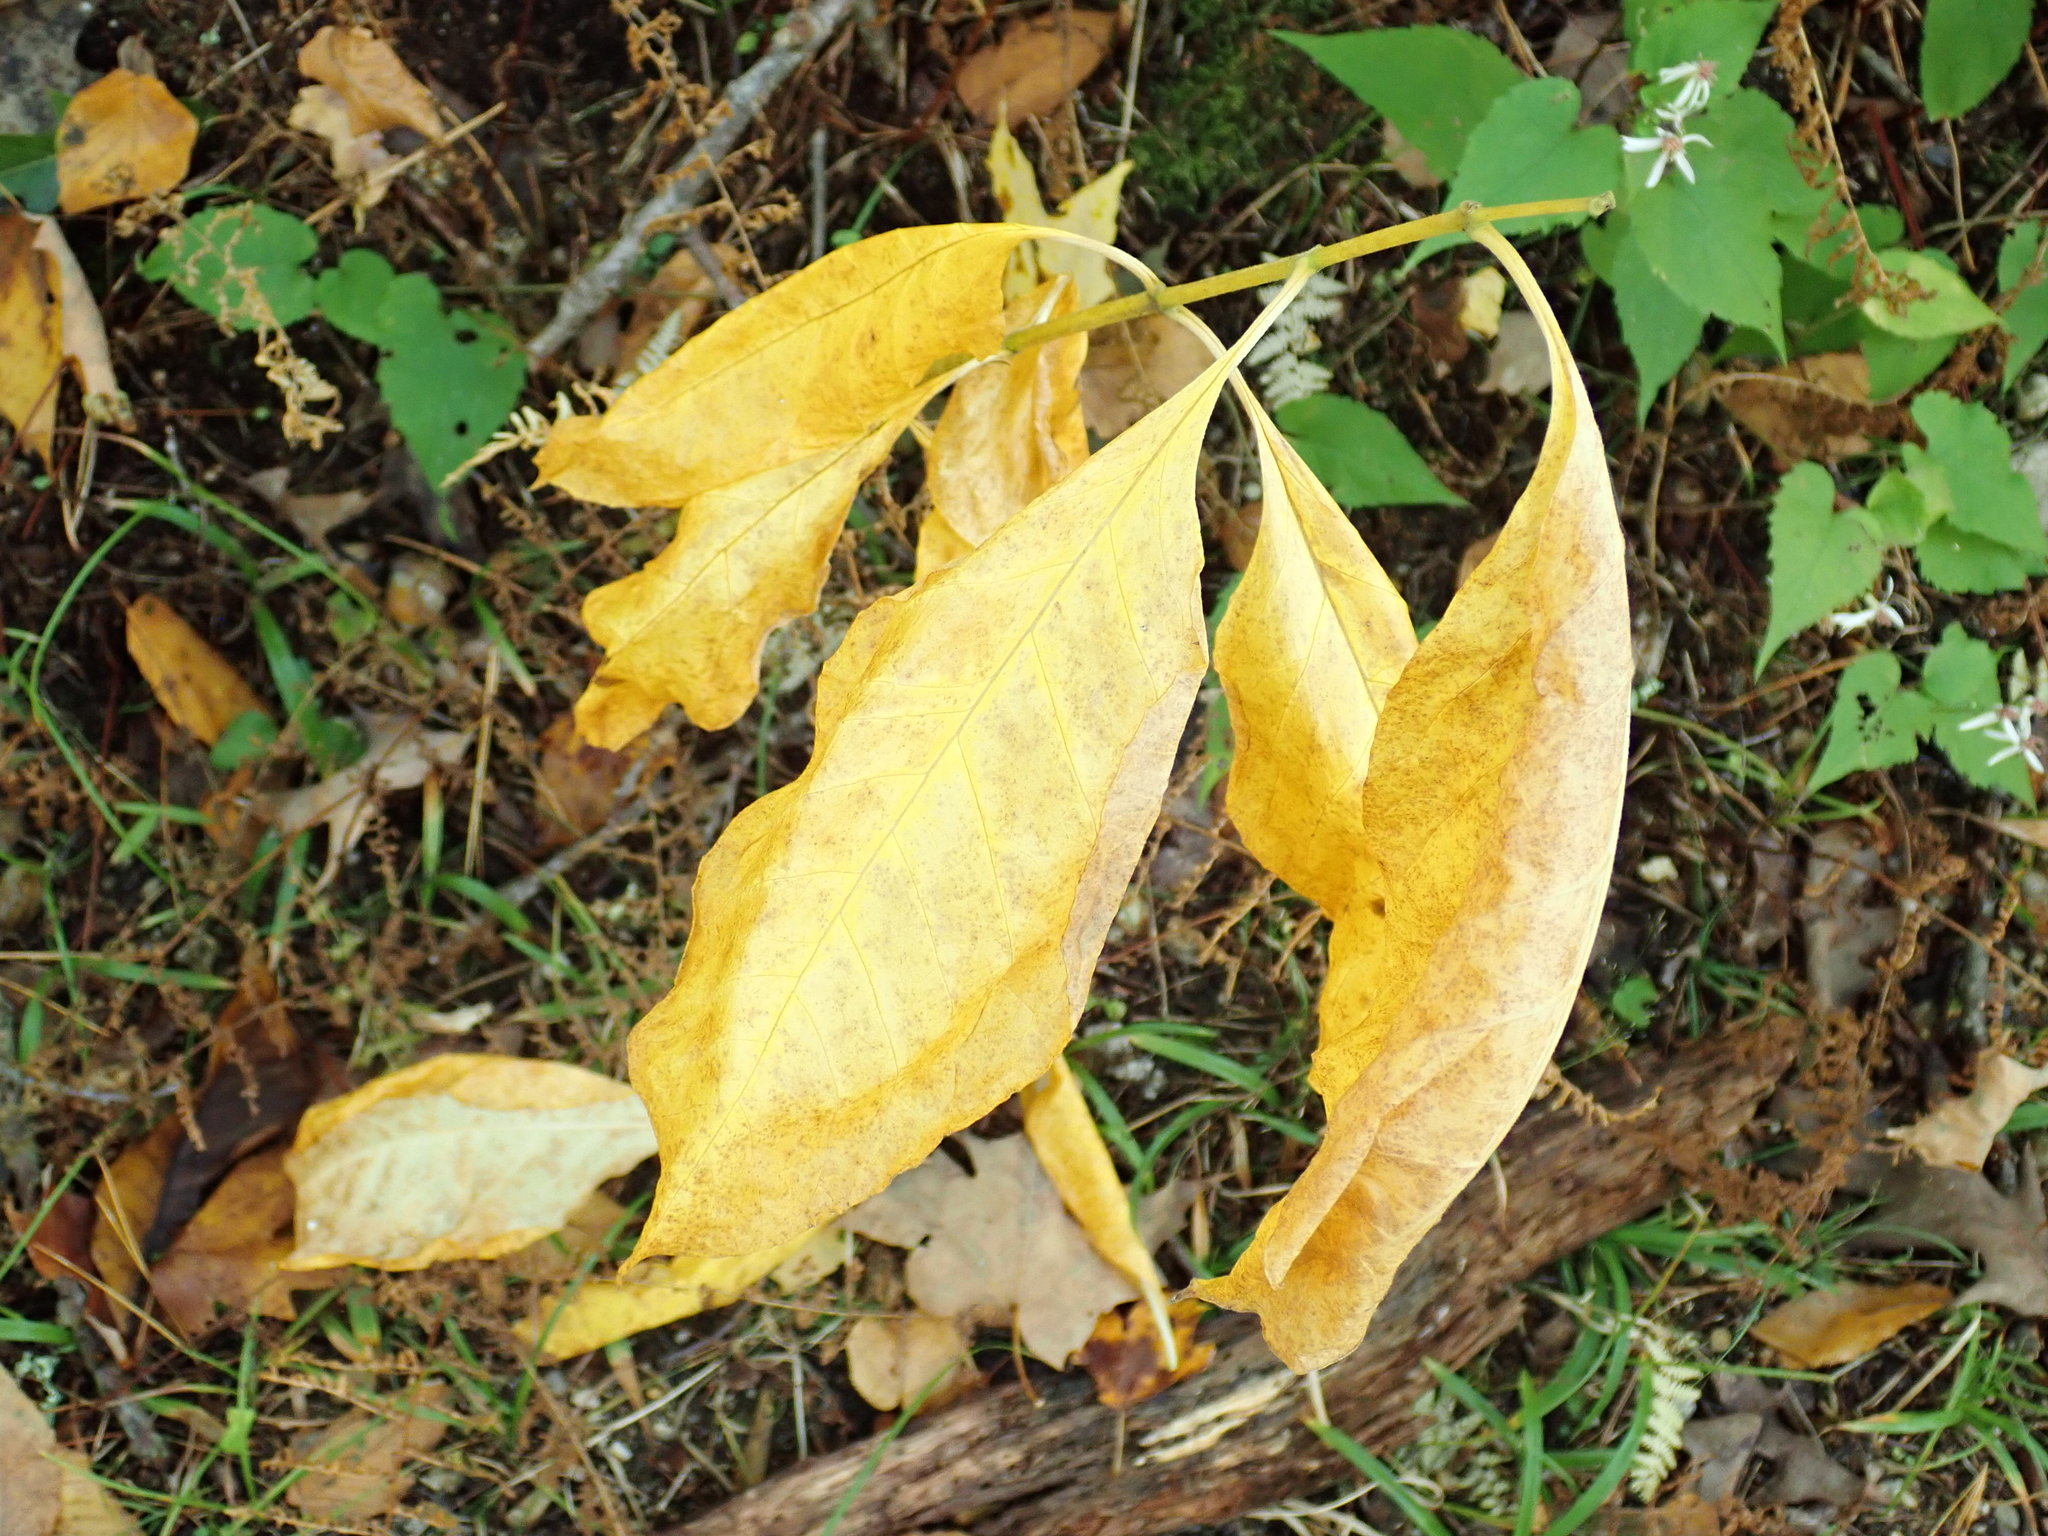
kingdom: Plantae
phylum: Tracheophyta
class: Magnoliopsida
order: Gentianales
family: Apocynaceae
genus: Asclepias
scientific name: Asclepias exaltata
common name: Poke milkweed
